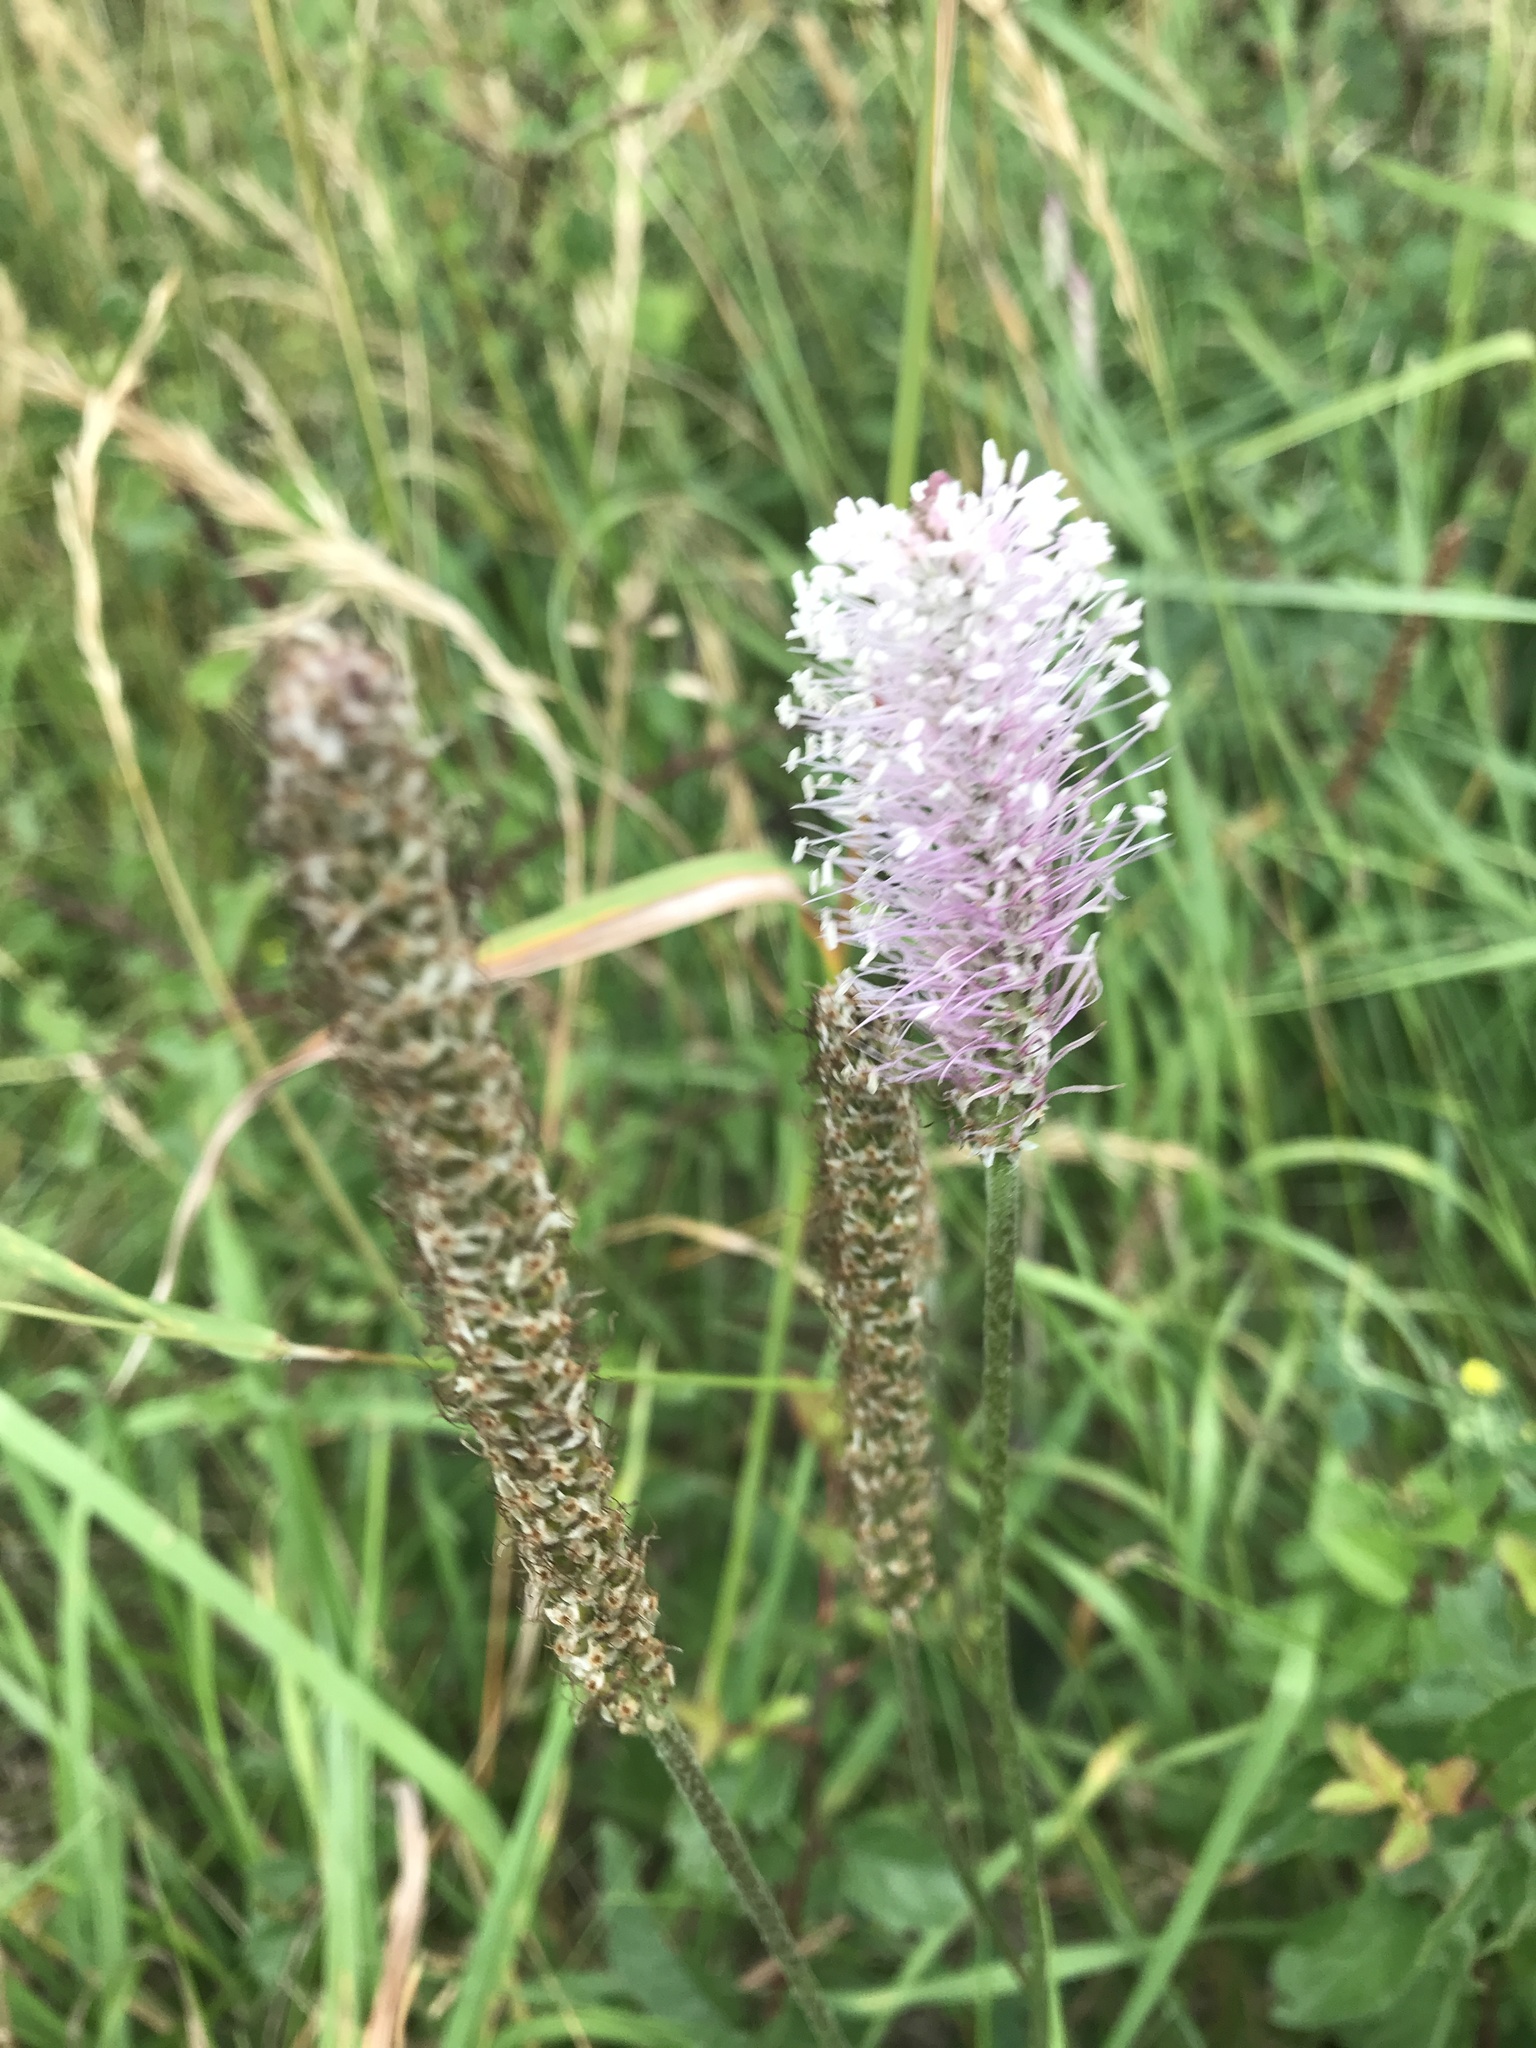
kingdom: Plantae
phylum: Tracheophyta
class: Magnoliopsida
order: Lamiales
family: Plantaginaceae
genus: Plantago
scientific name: Plantago media
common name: Hoary plantain
